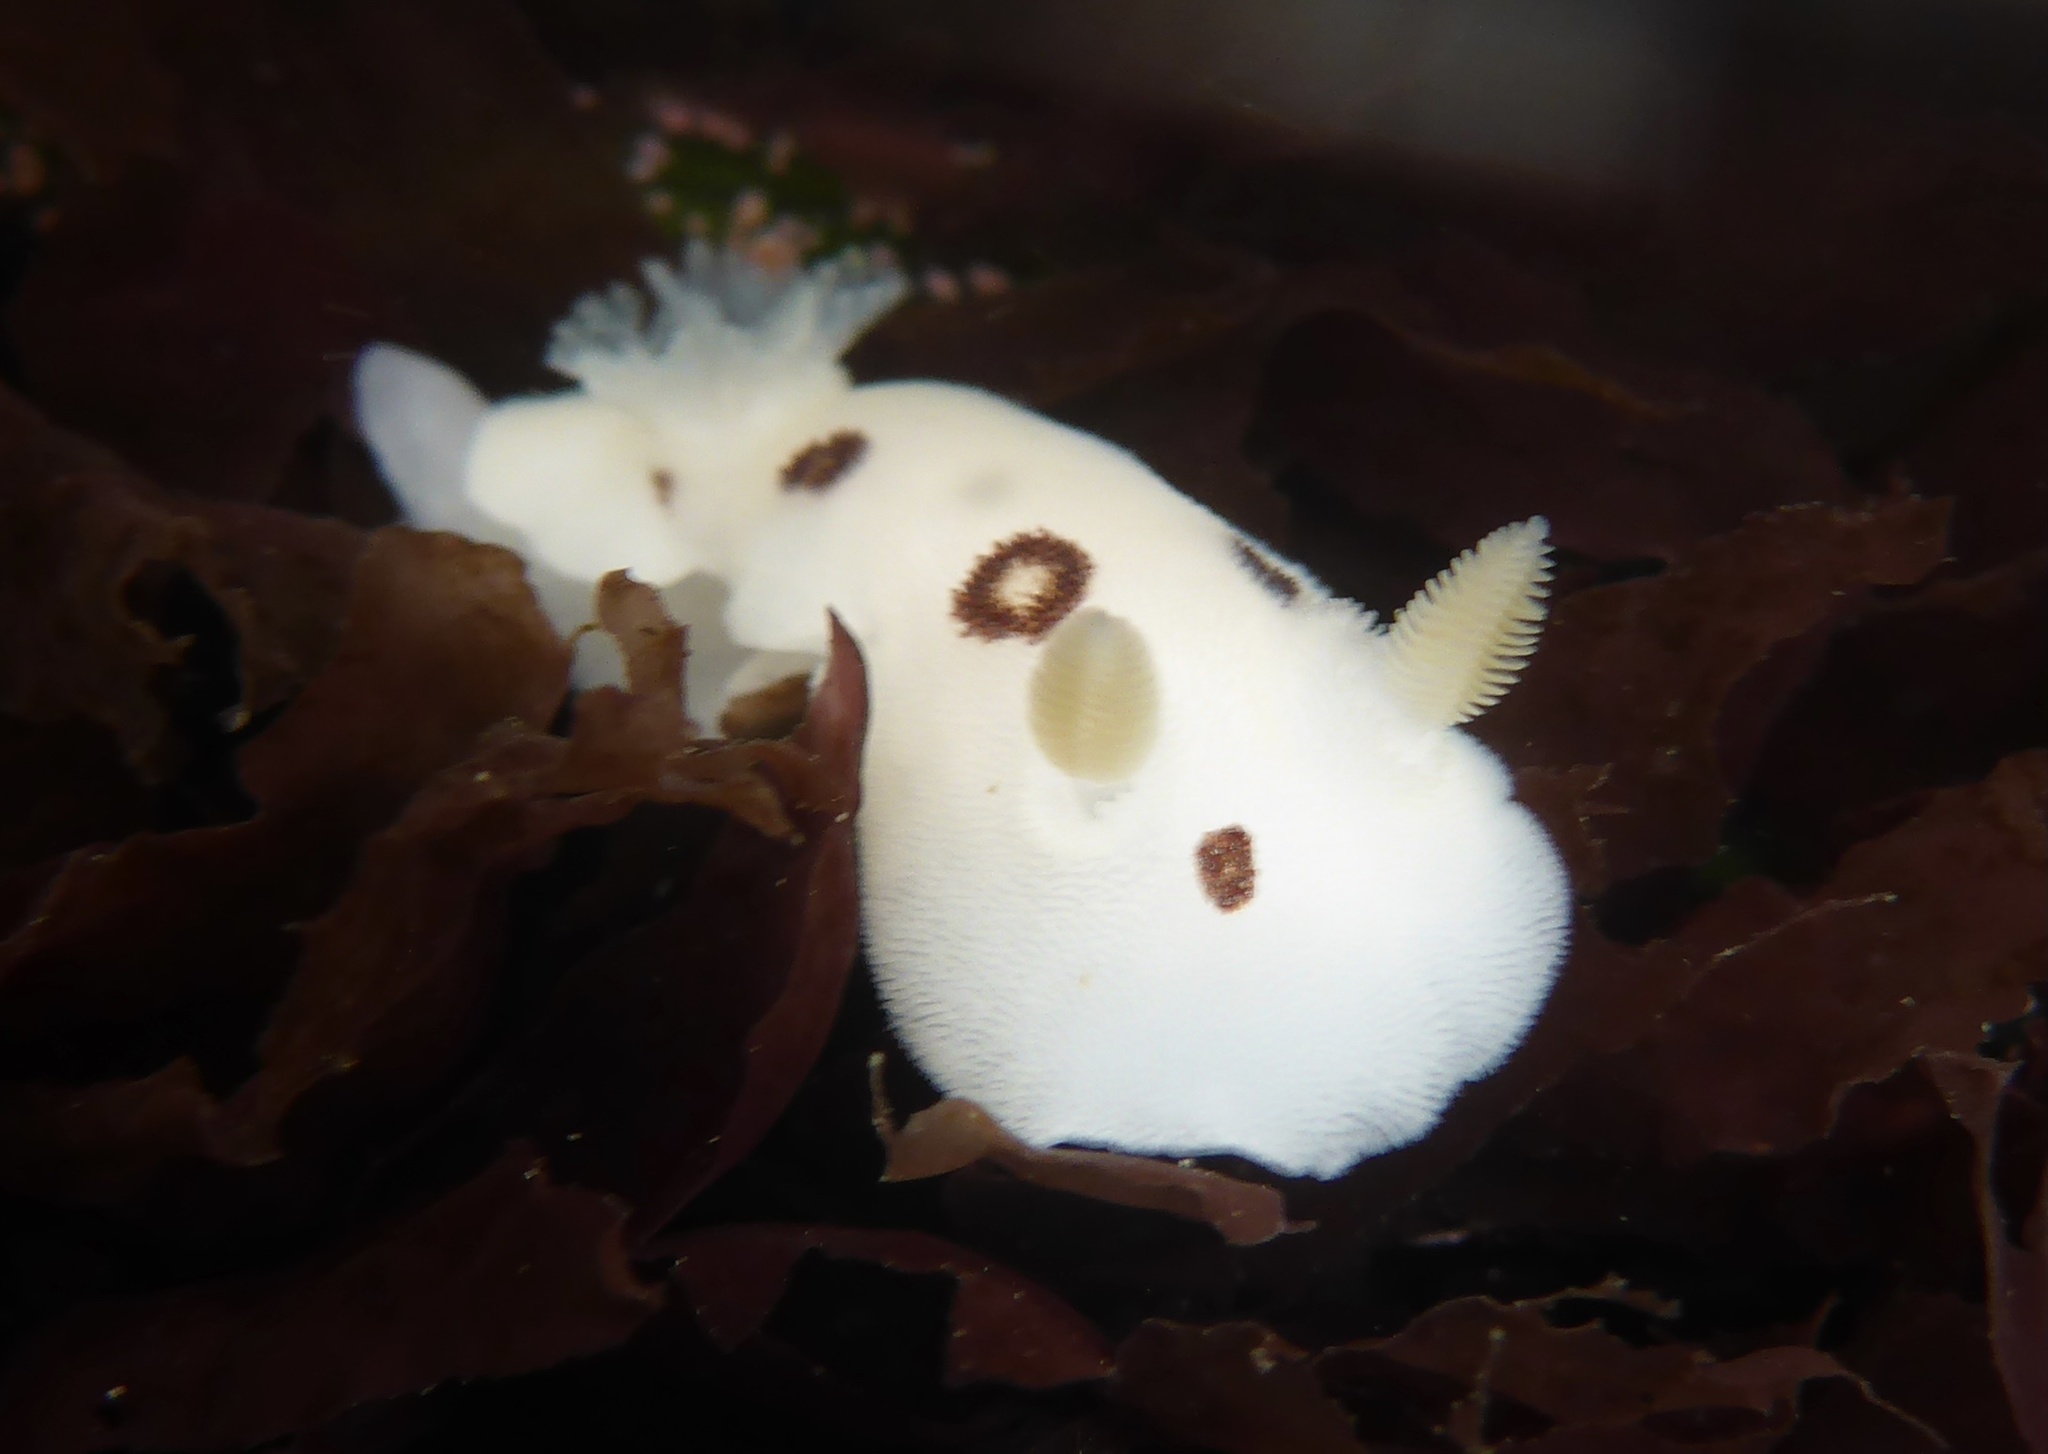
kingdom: Animalia
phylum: Mollusca
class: Gastropoda
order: Nudibranchia
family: Discodorididae
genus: Diaulula
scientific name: Diaulula sandiegensis
